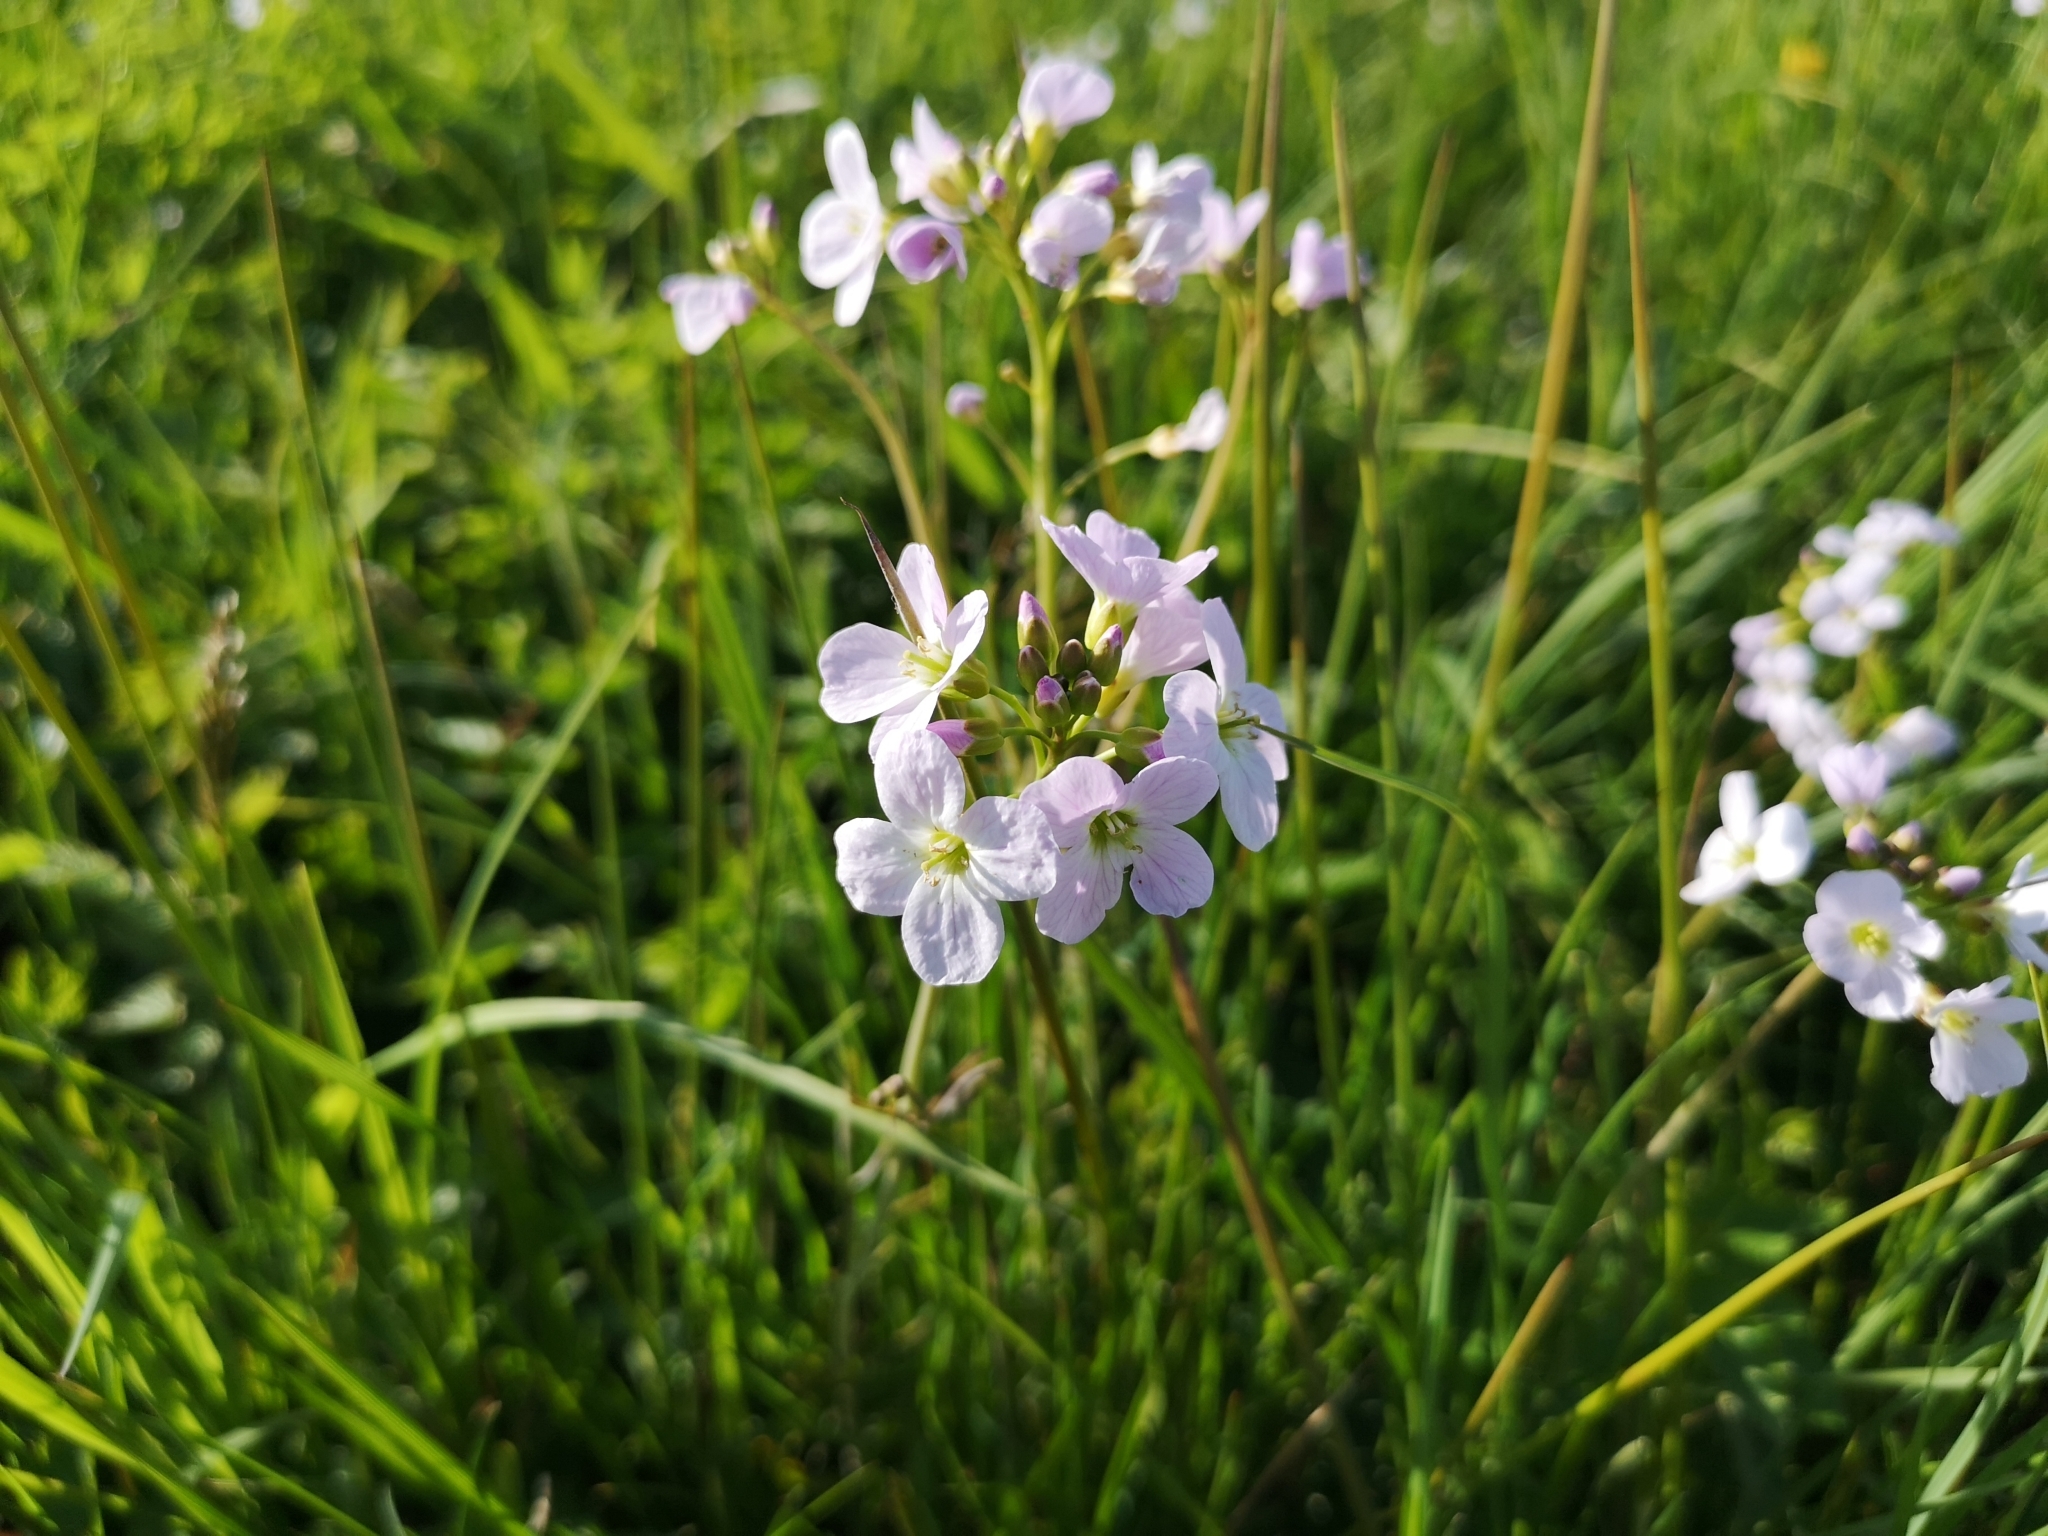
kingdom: Plantae
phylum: Tracheophyta
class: Magnoliopsida
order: Brassicales
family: Brassicaceae
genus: Cardamine
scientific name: Cardamine pratensis
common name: Cuckoo flower
